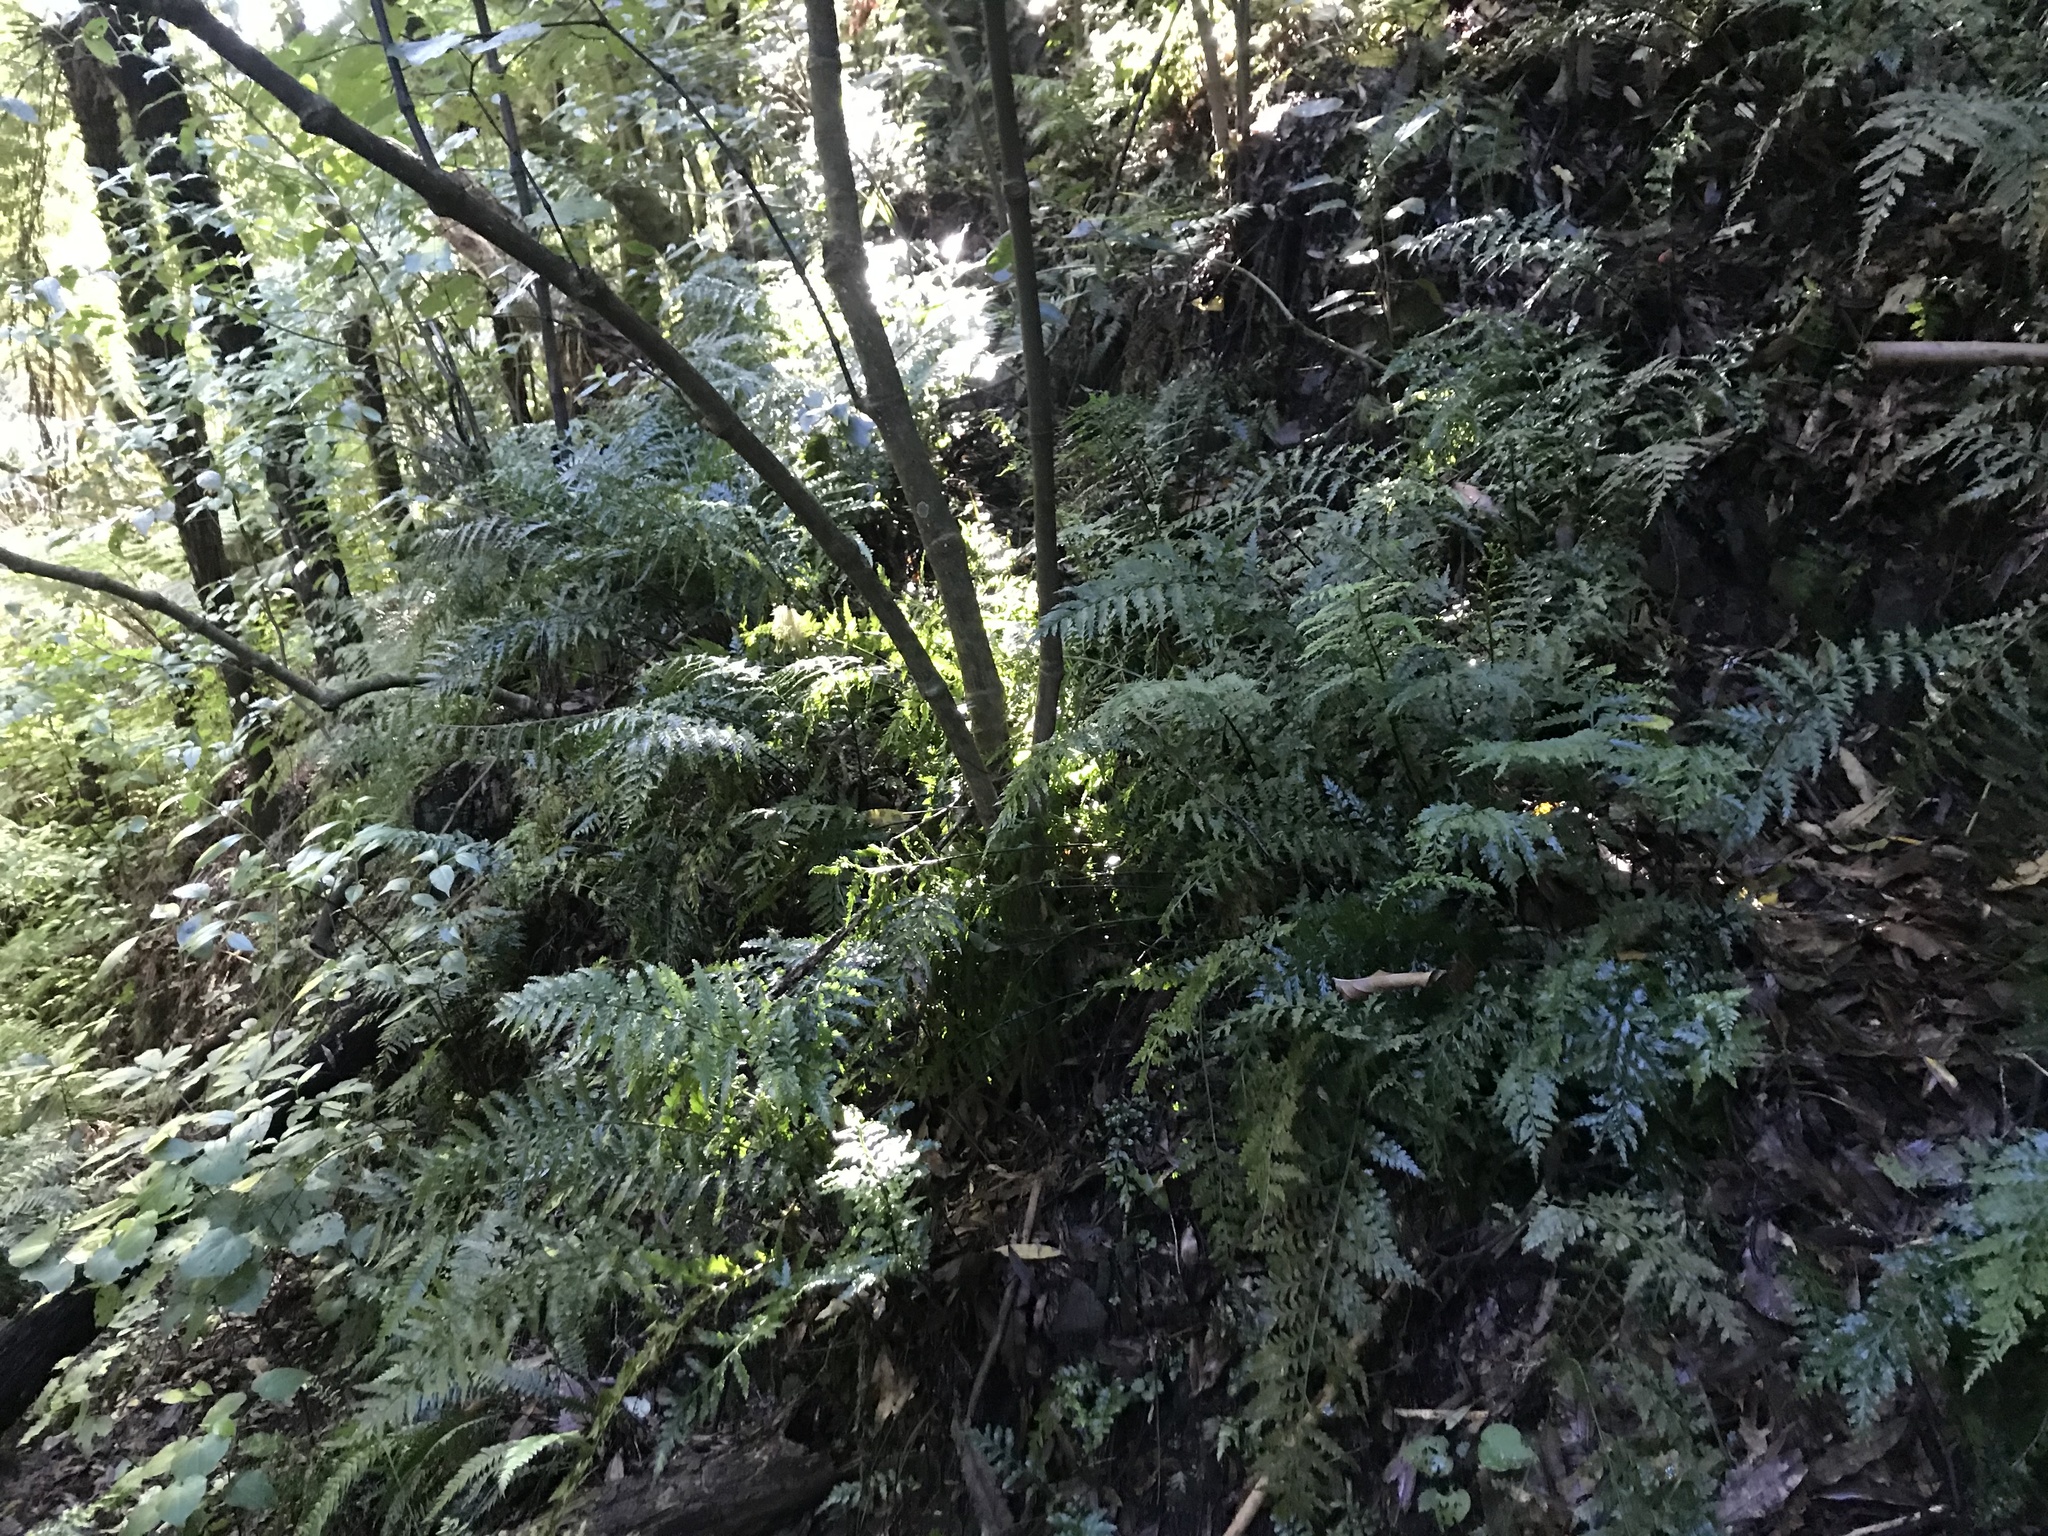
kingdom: Plantae
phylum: Tracheophyta
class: Polypodiopsida
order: Polypodiales
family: Aspleniaceae
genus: Asplenium
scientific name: Asplenium lamprophyllum
